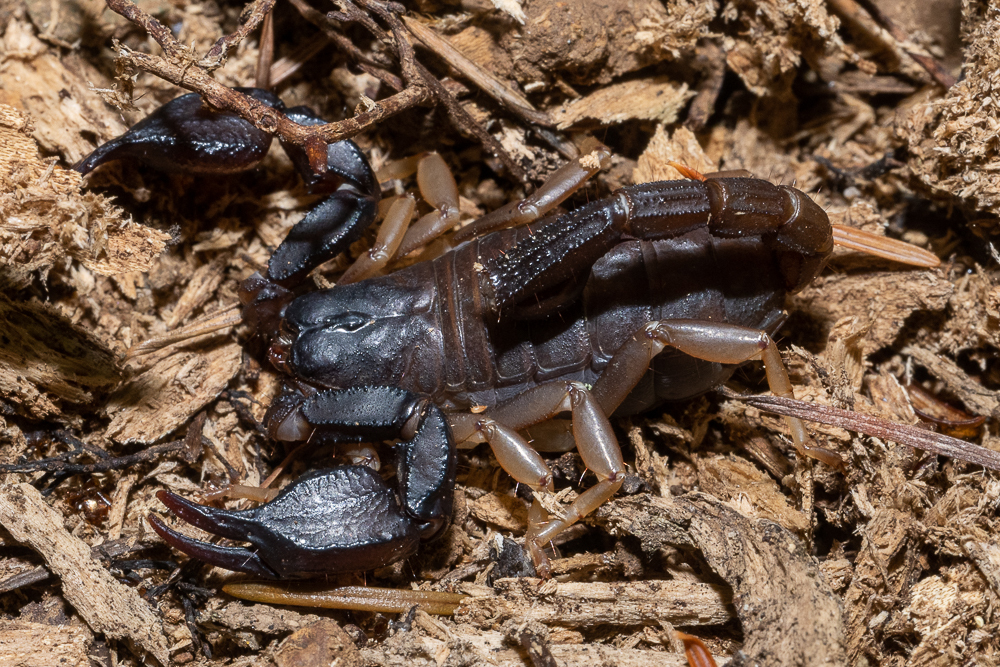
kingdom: Animalia
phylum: Arthropoda
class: Arachnida
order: Scorpiones
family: Chactidae
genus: Uroctonus
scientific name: Uroctonus mordax
